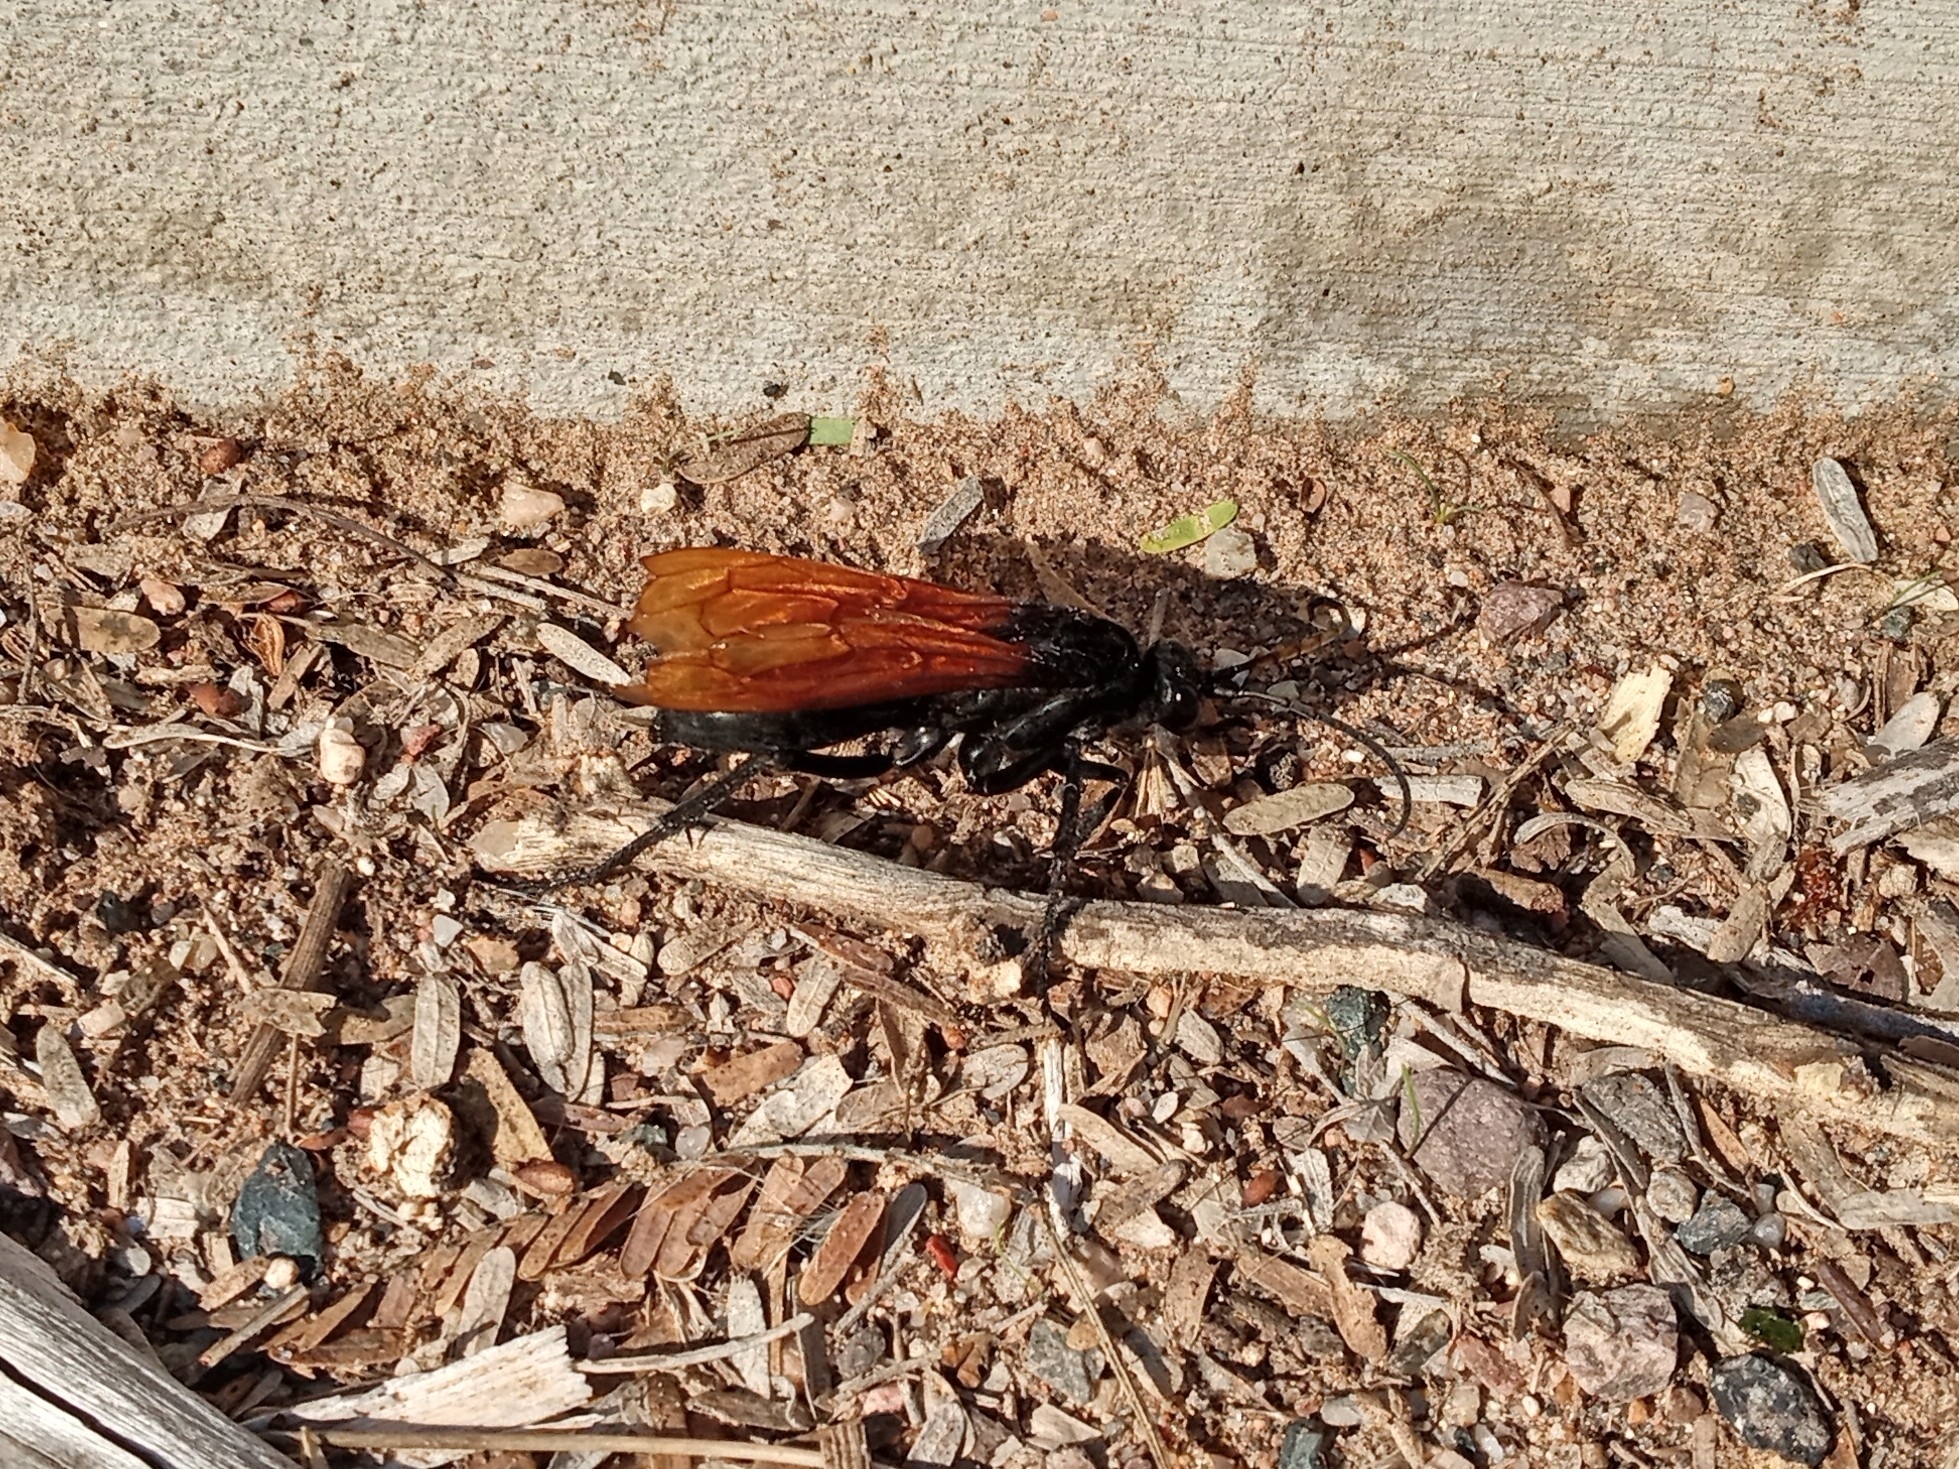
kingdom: Animalia
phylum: Arthropoda
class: Insecta
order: Hymenoptera
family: Pompilidae
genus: Pepsis
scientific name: Pepsis
